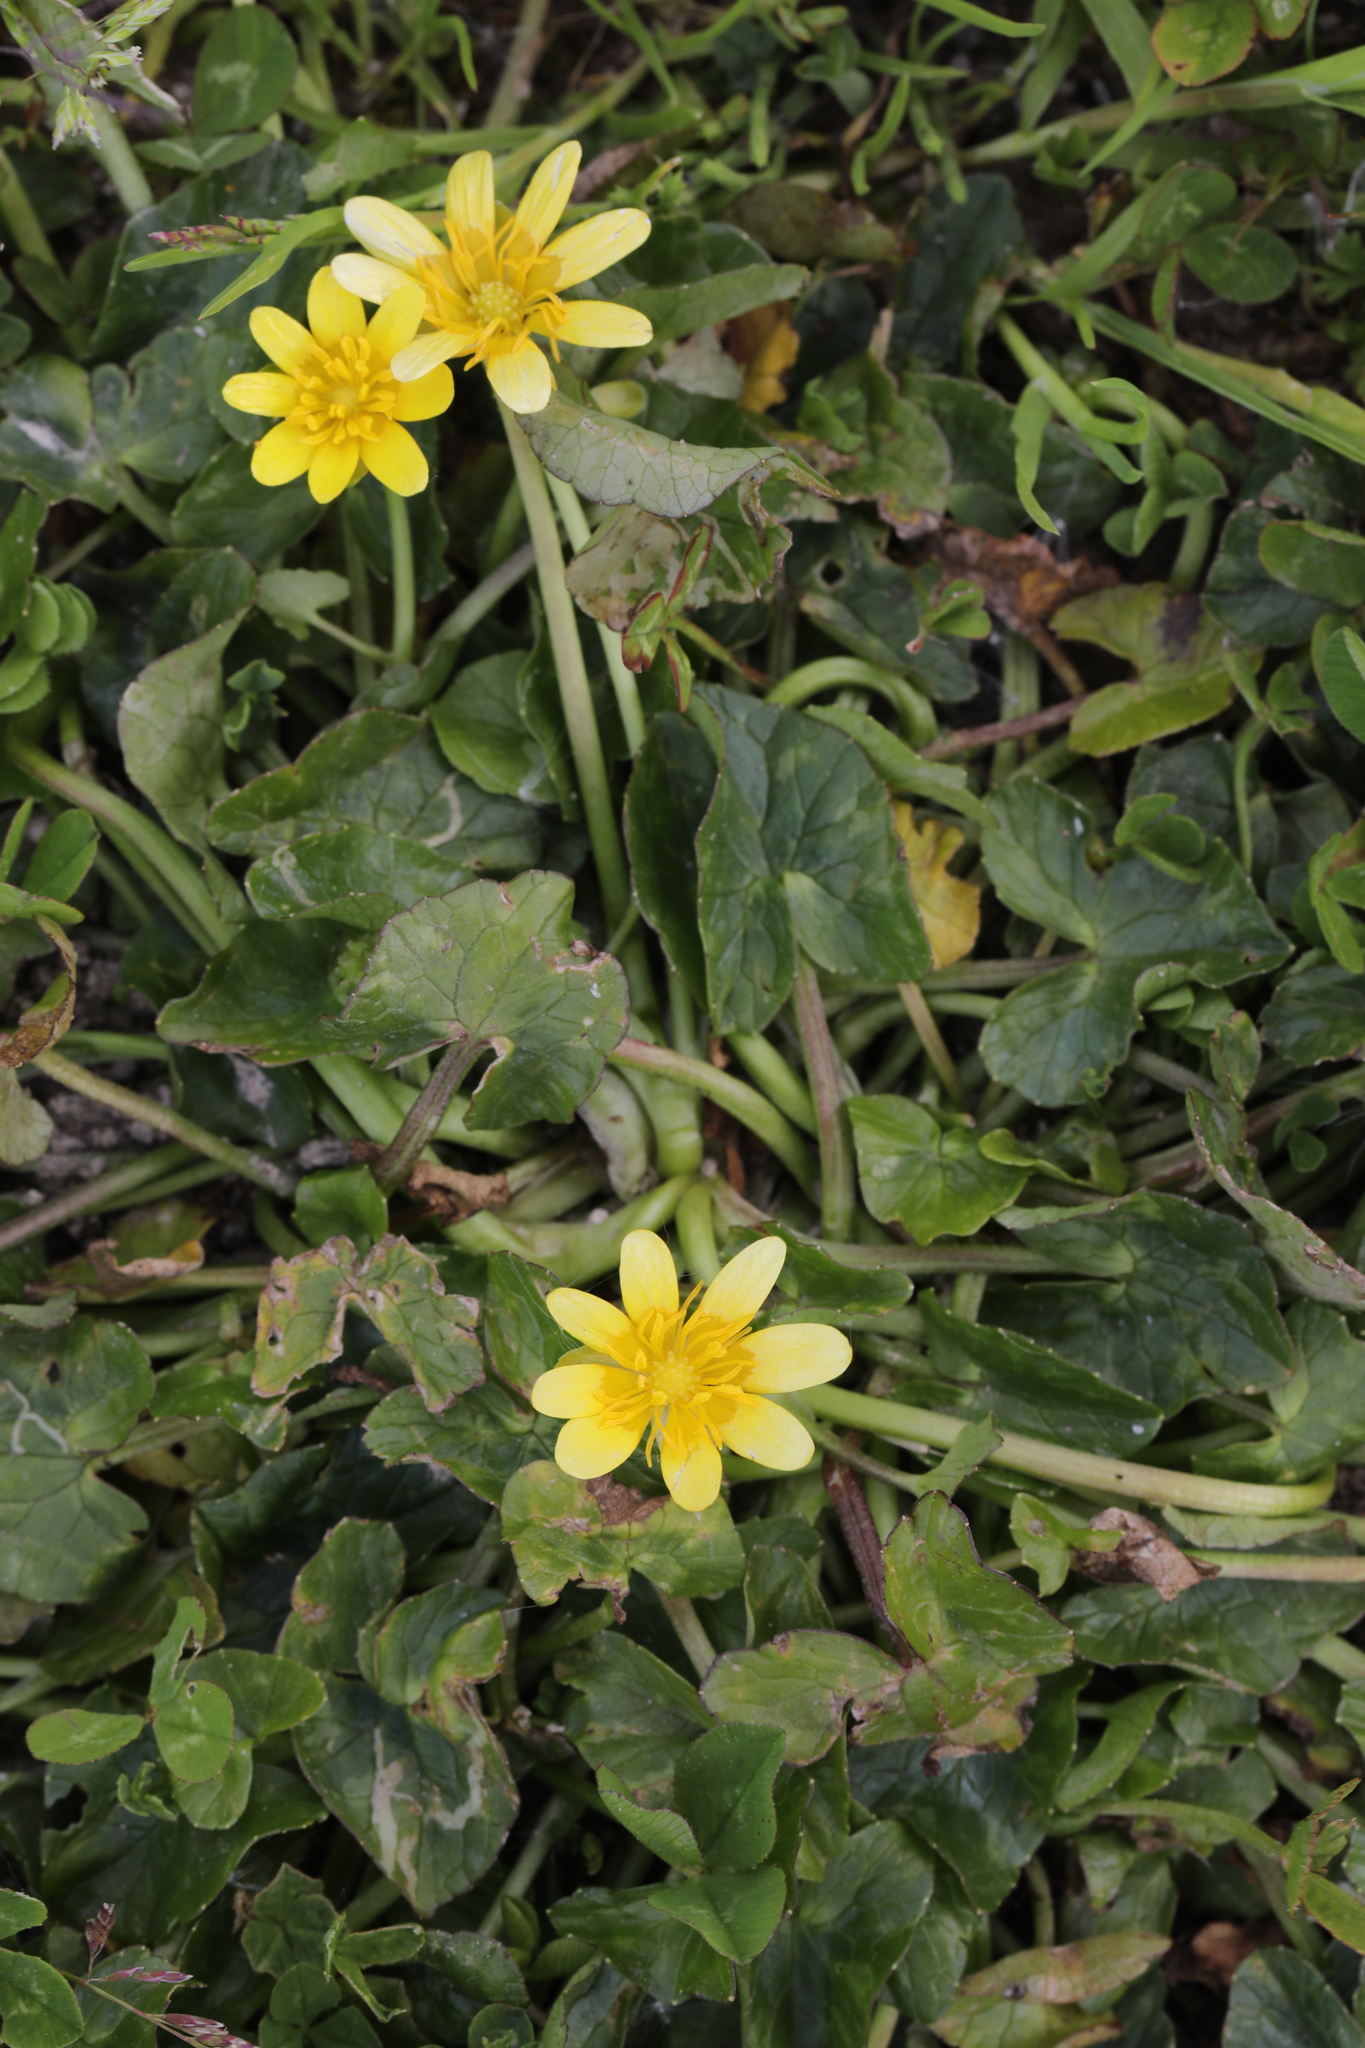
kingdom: Plantae
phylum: Tracheophyta
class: Magnoliopsida
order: Ranunculales
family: Ranunculaceae
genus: Ficaria
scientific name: Ficaria verna
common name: Lesser celandine
